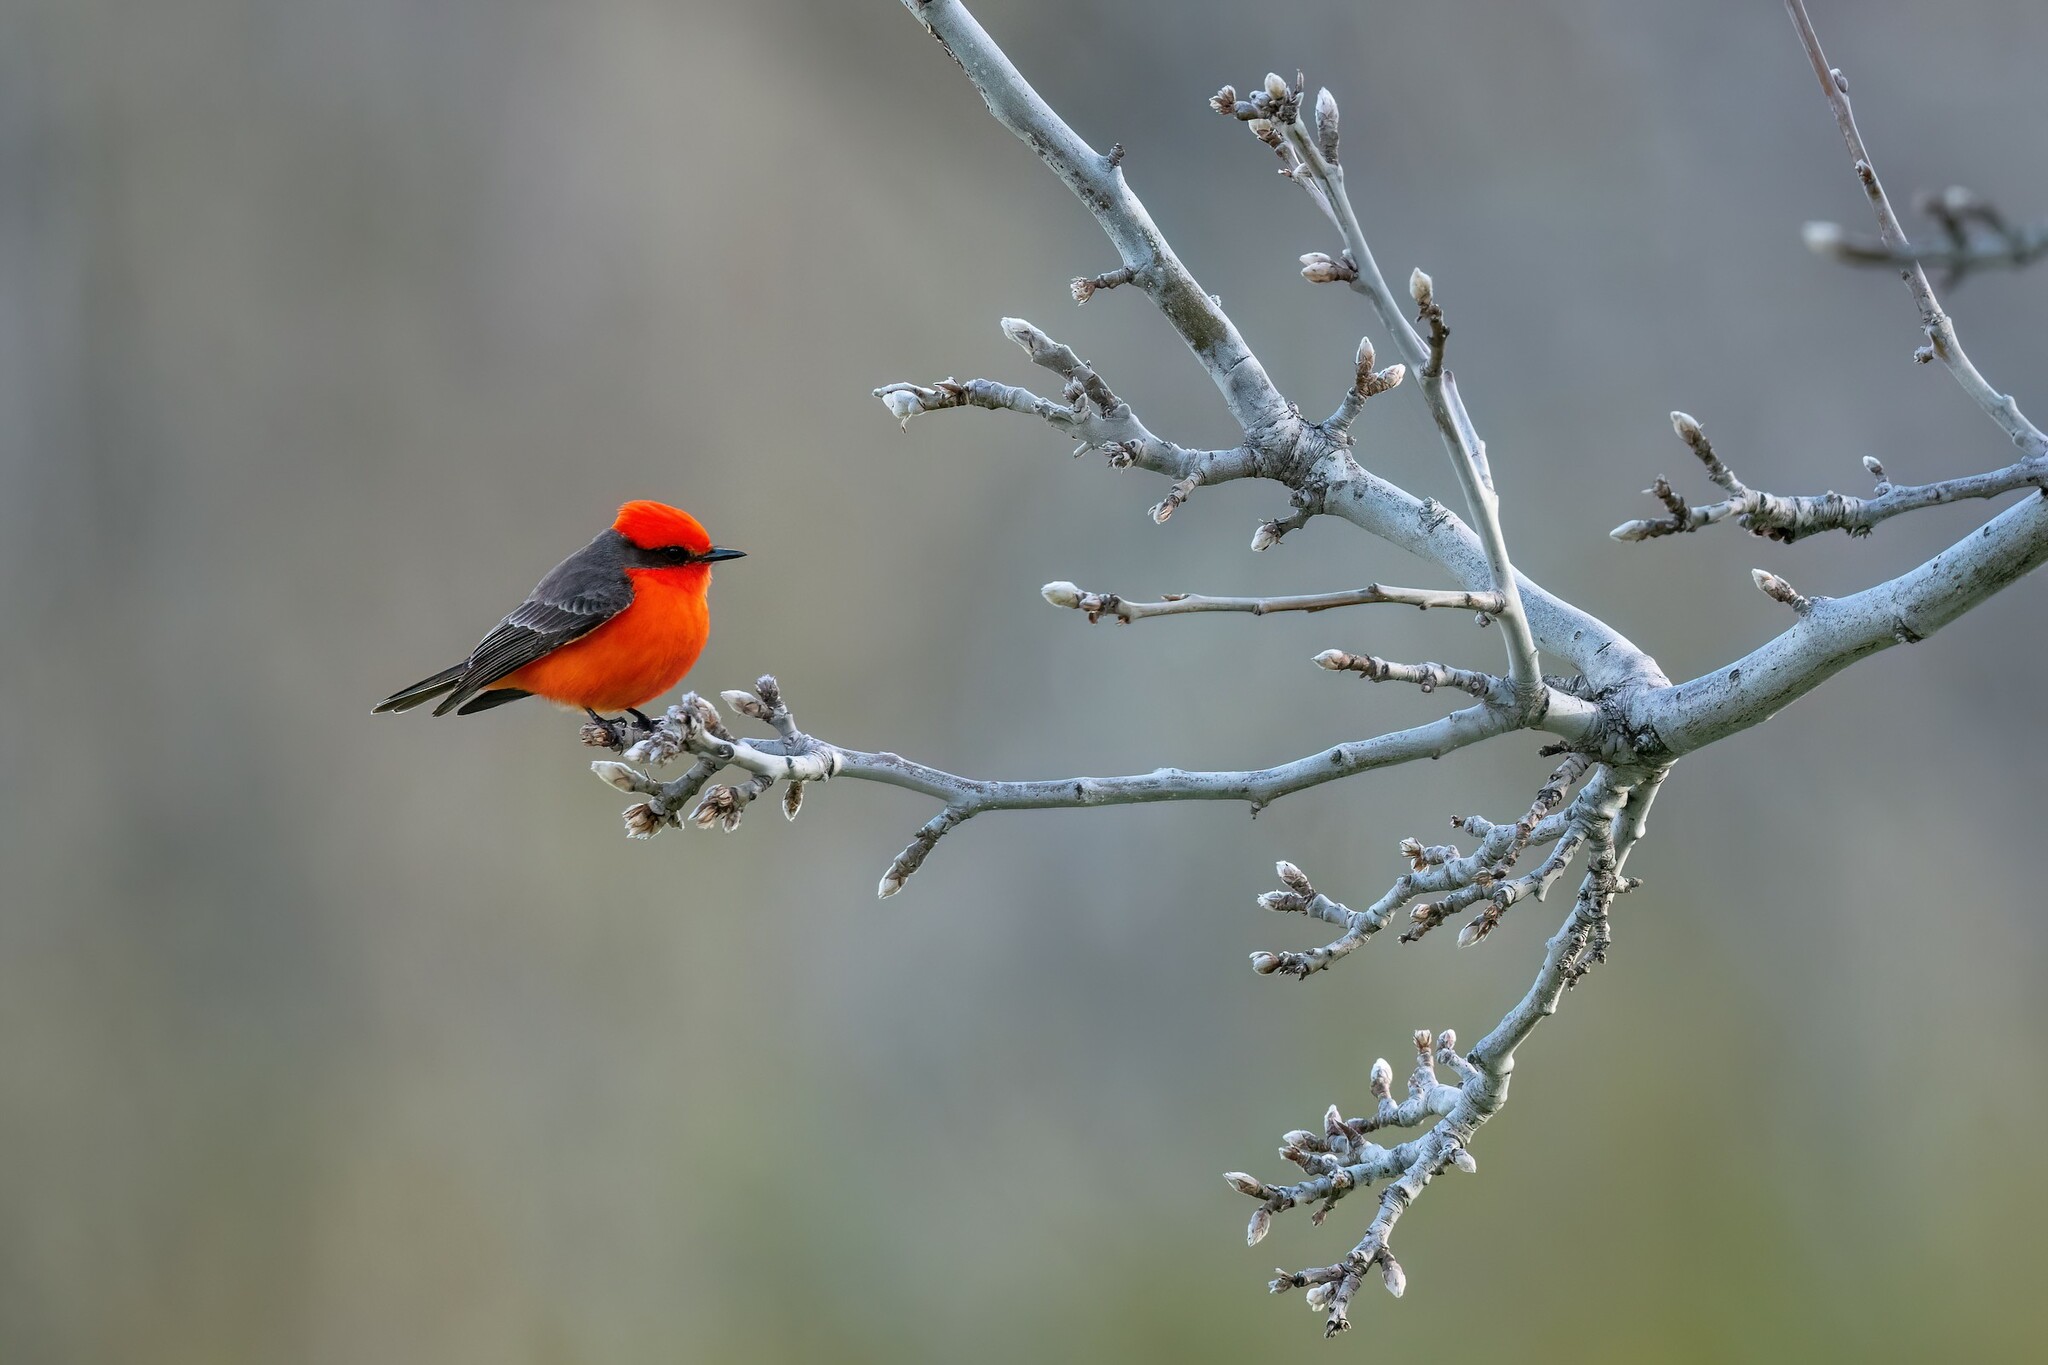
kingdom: Animalia
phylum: Chordata
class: Aves
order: Passeriformes
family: Tyrannidae
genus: Pyrocephalus
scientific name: Pyrocephalus rubinus
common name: Vermilion flycatcher
